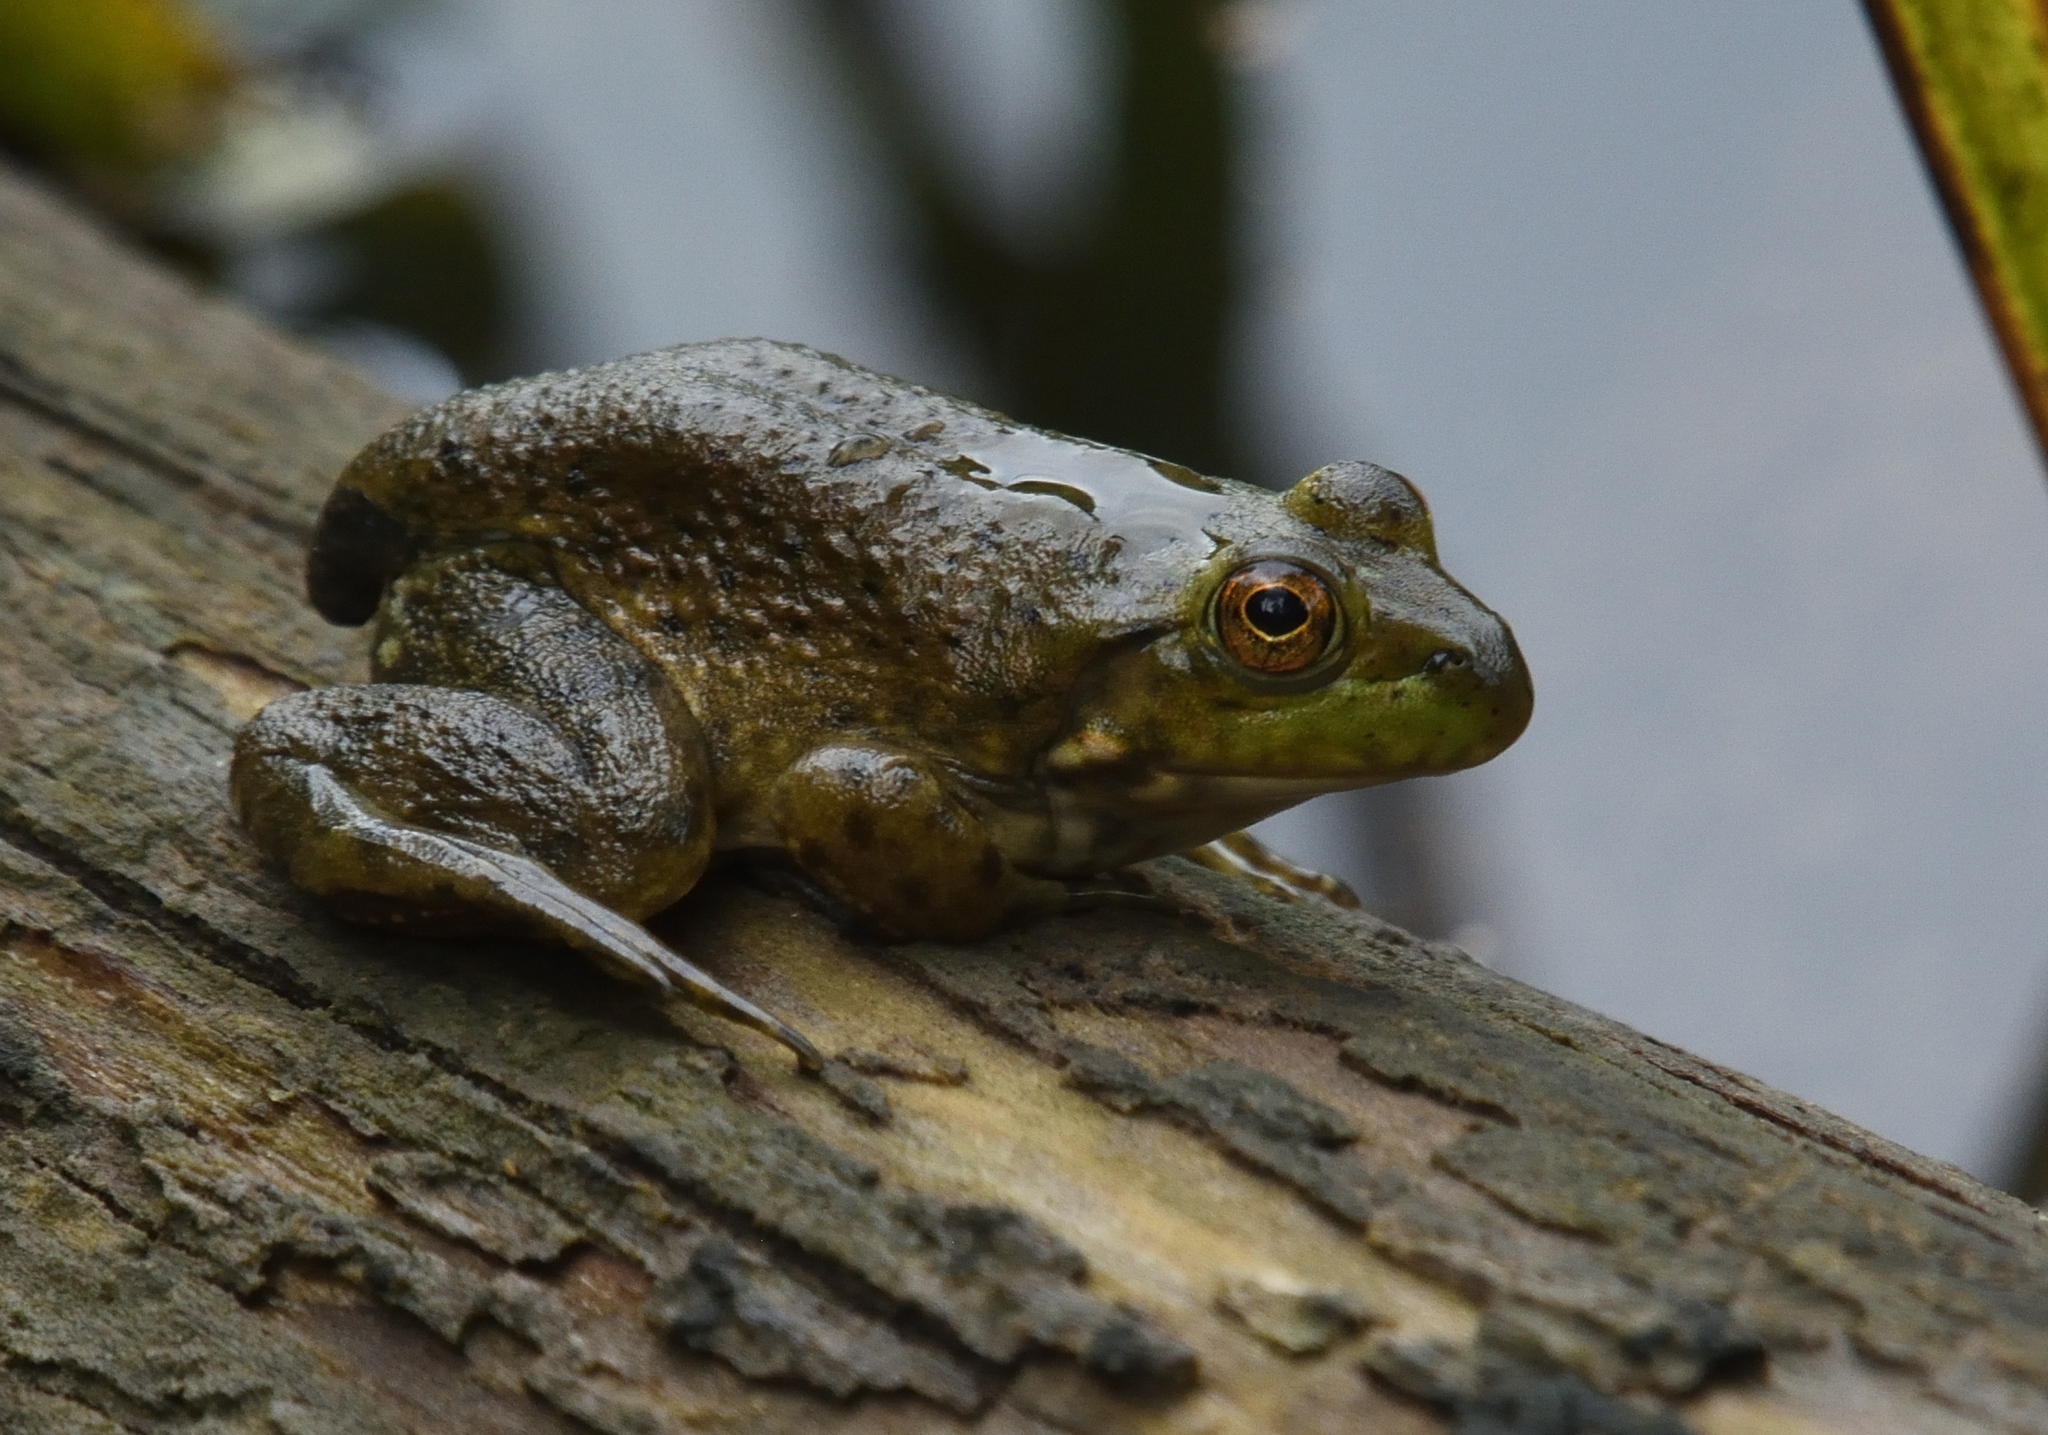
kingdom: Animalia
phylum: Chordata
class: Amphibia
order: Anura
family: Ranidae
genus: Lithobates
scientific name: Lithobates catesbeianus
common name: American bullfrog
